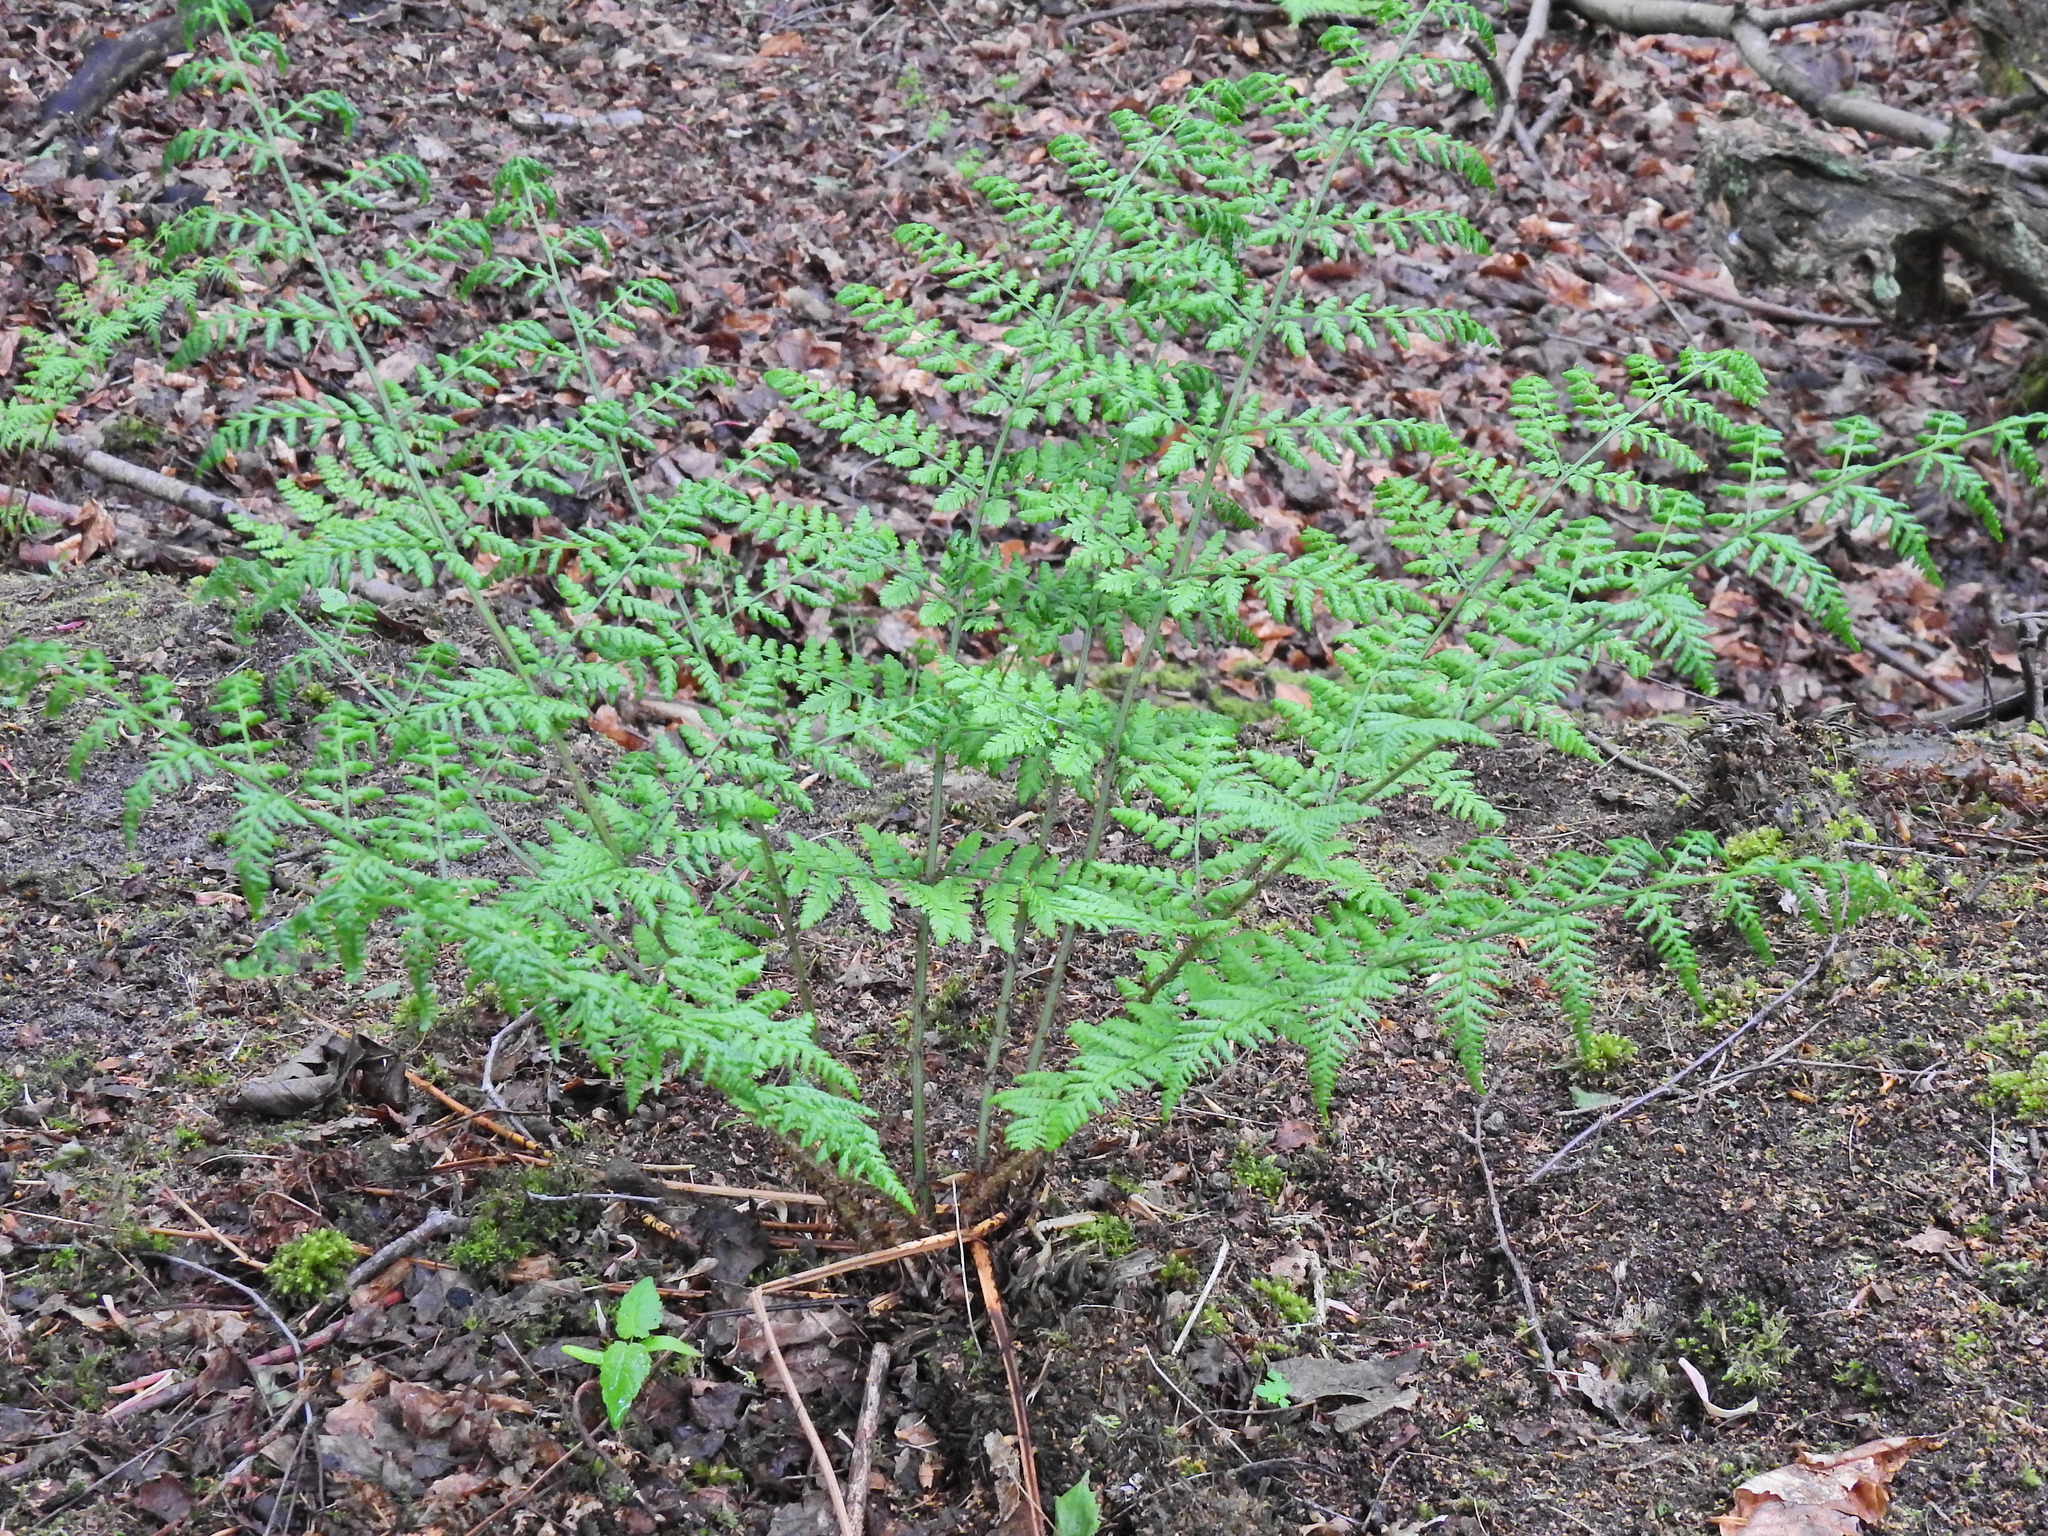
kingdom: Plantae
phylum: Tracheophyta
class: Polypodiopsida
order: Polypodiales
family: Dryopteridaceae
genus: Dryopteris
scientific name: Dryopteris dilatata
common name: Broad buckler-fern
